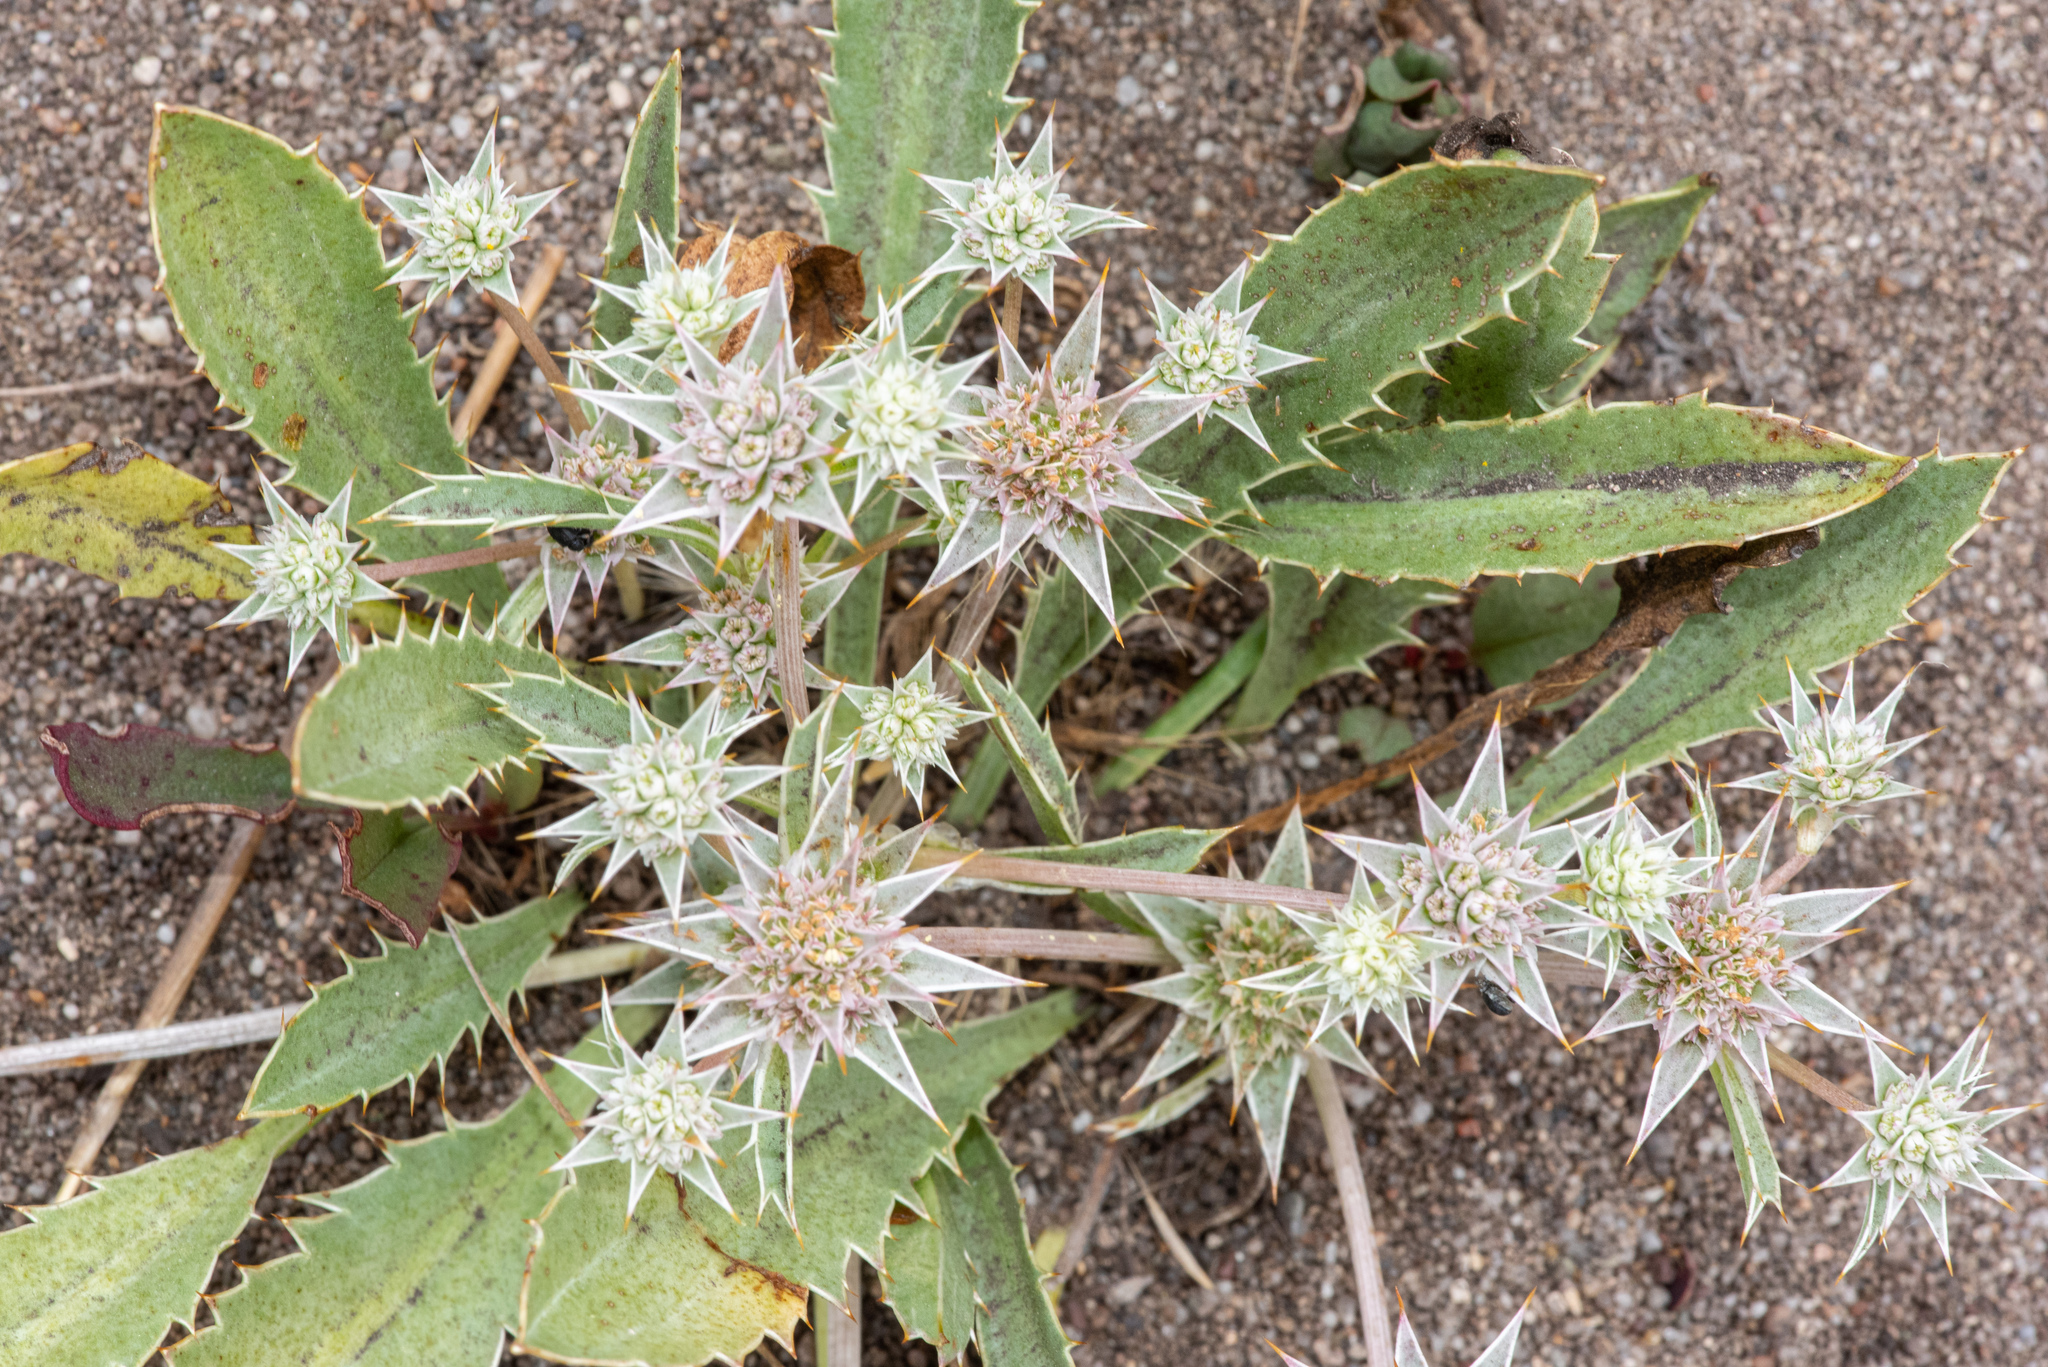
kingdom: Plantae
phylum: Tracheophyta
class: Magnoliopsida
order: Apiales
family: Apiaceae
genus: Eryngium
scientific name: Eryngium armatum
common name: Coyote thistle
